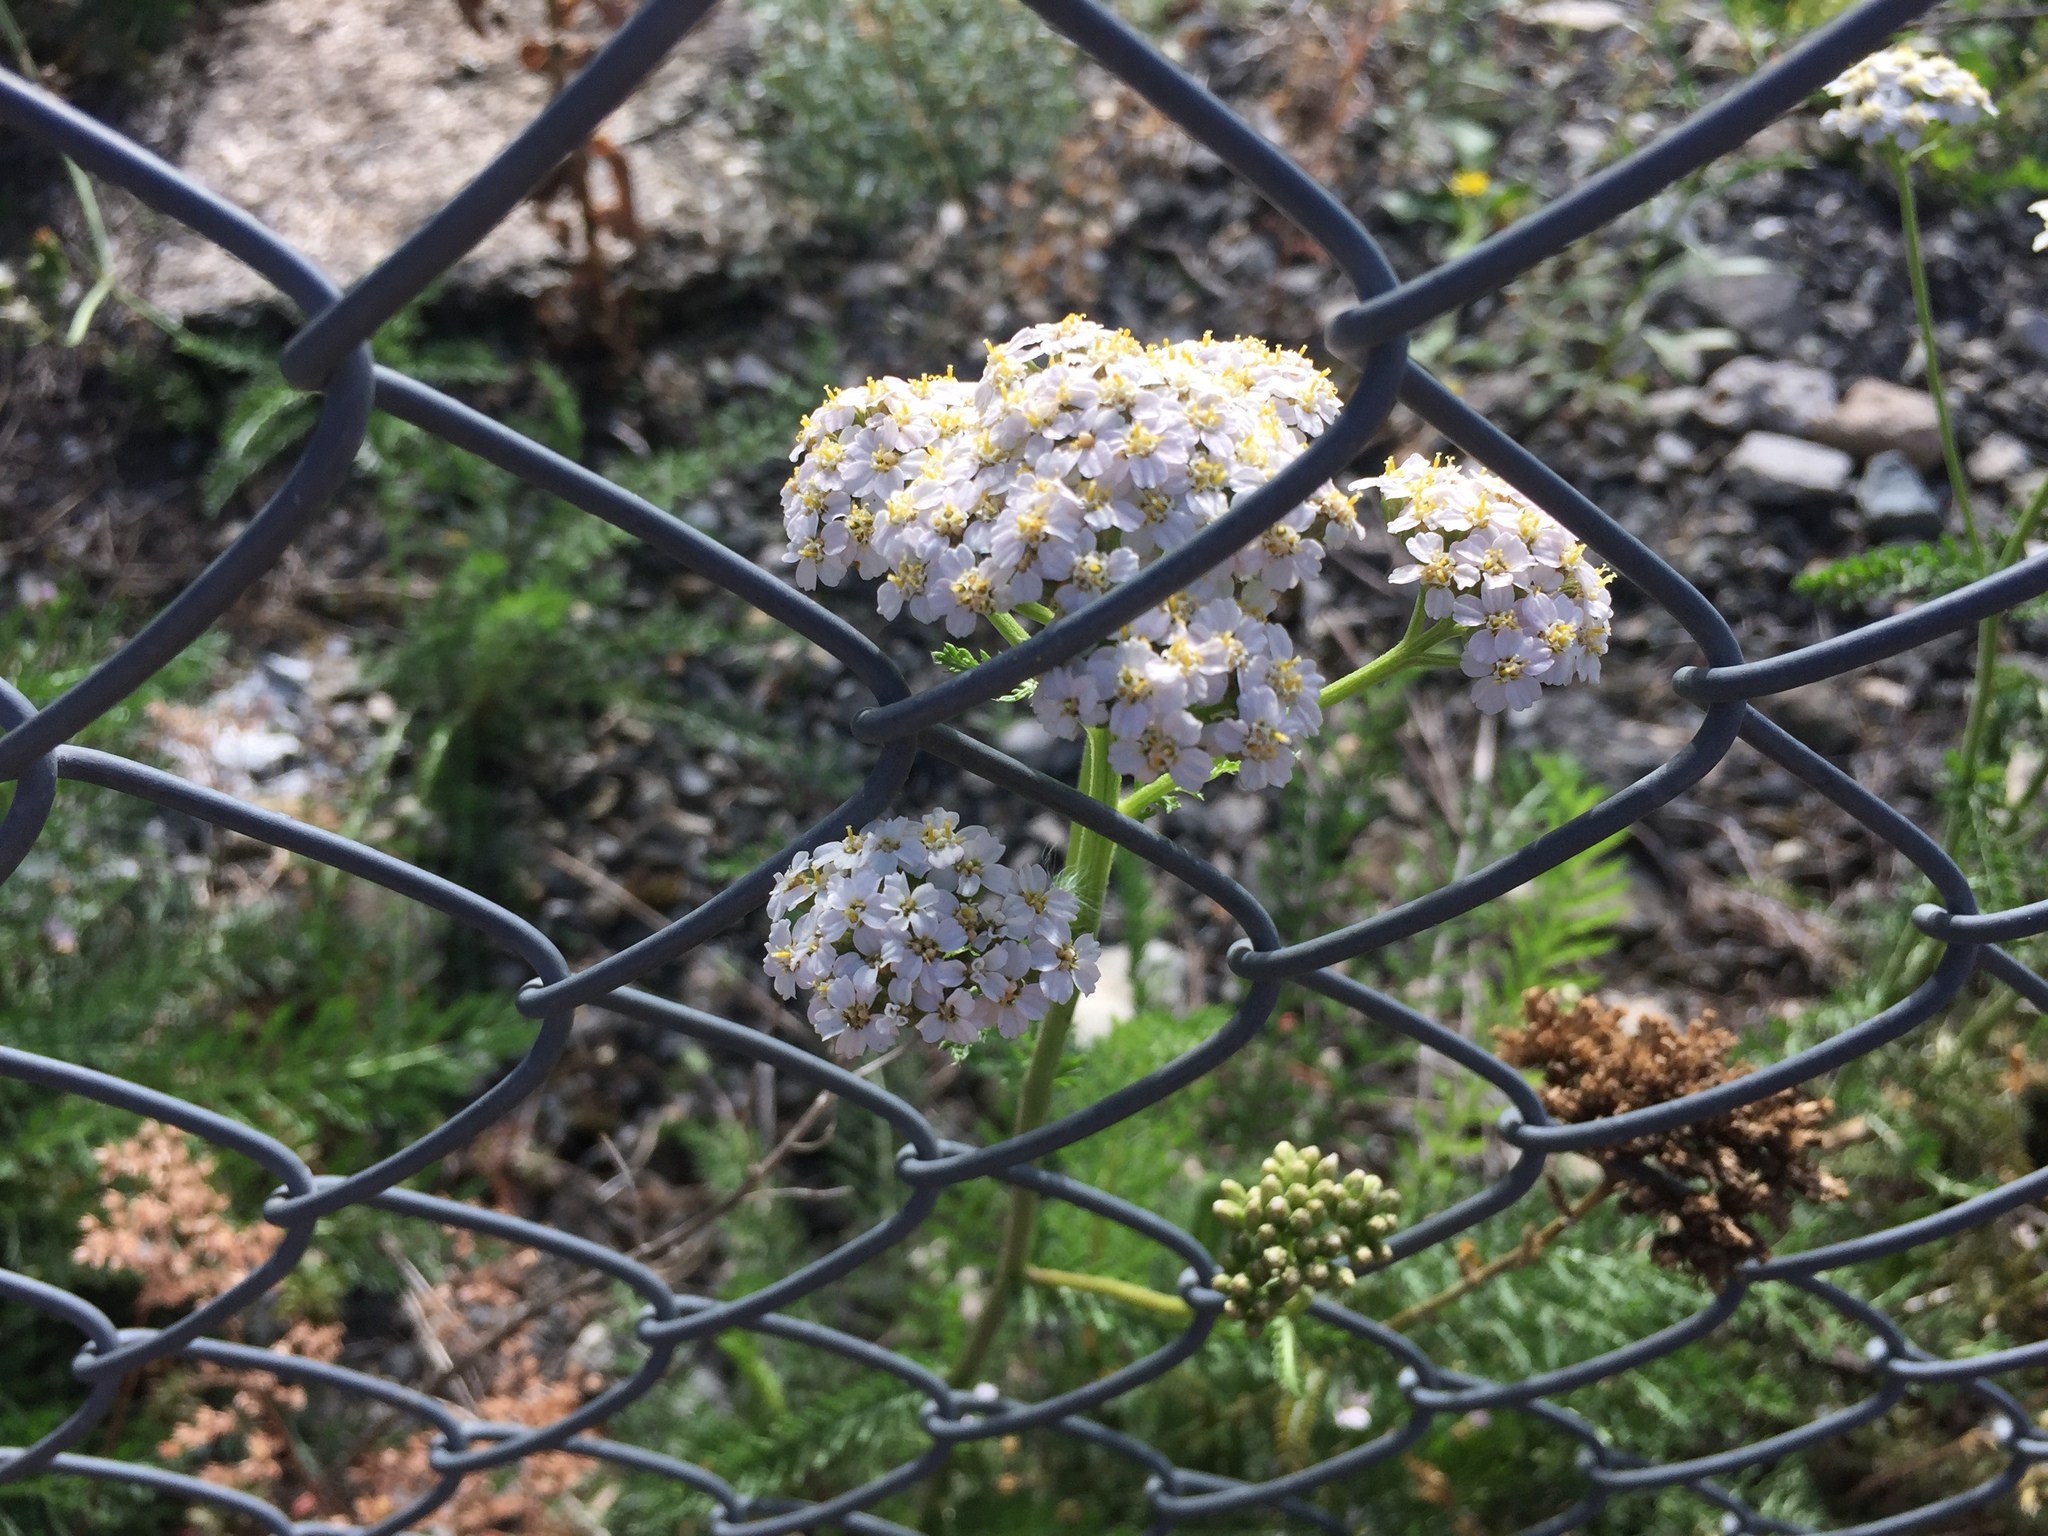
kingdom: Plantae
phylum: Tracheophyta
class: Magnoliopsida
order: Asterales
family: Asteraceae
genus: Achillea
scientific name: Achillea millefolium
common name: Yarrow
